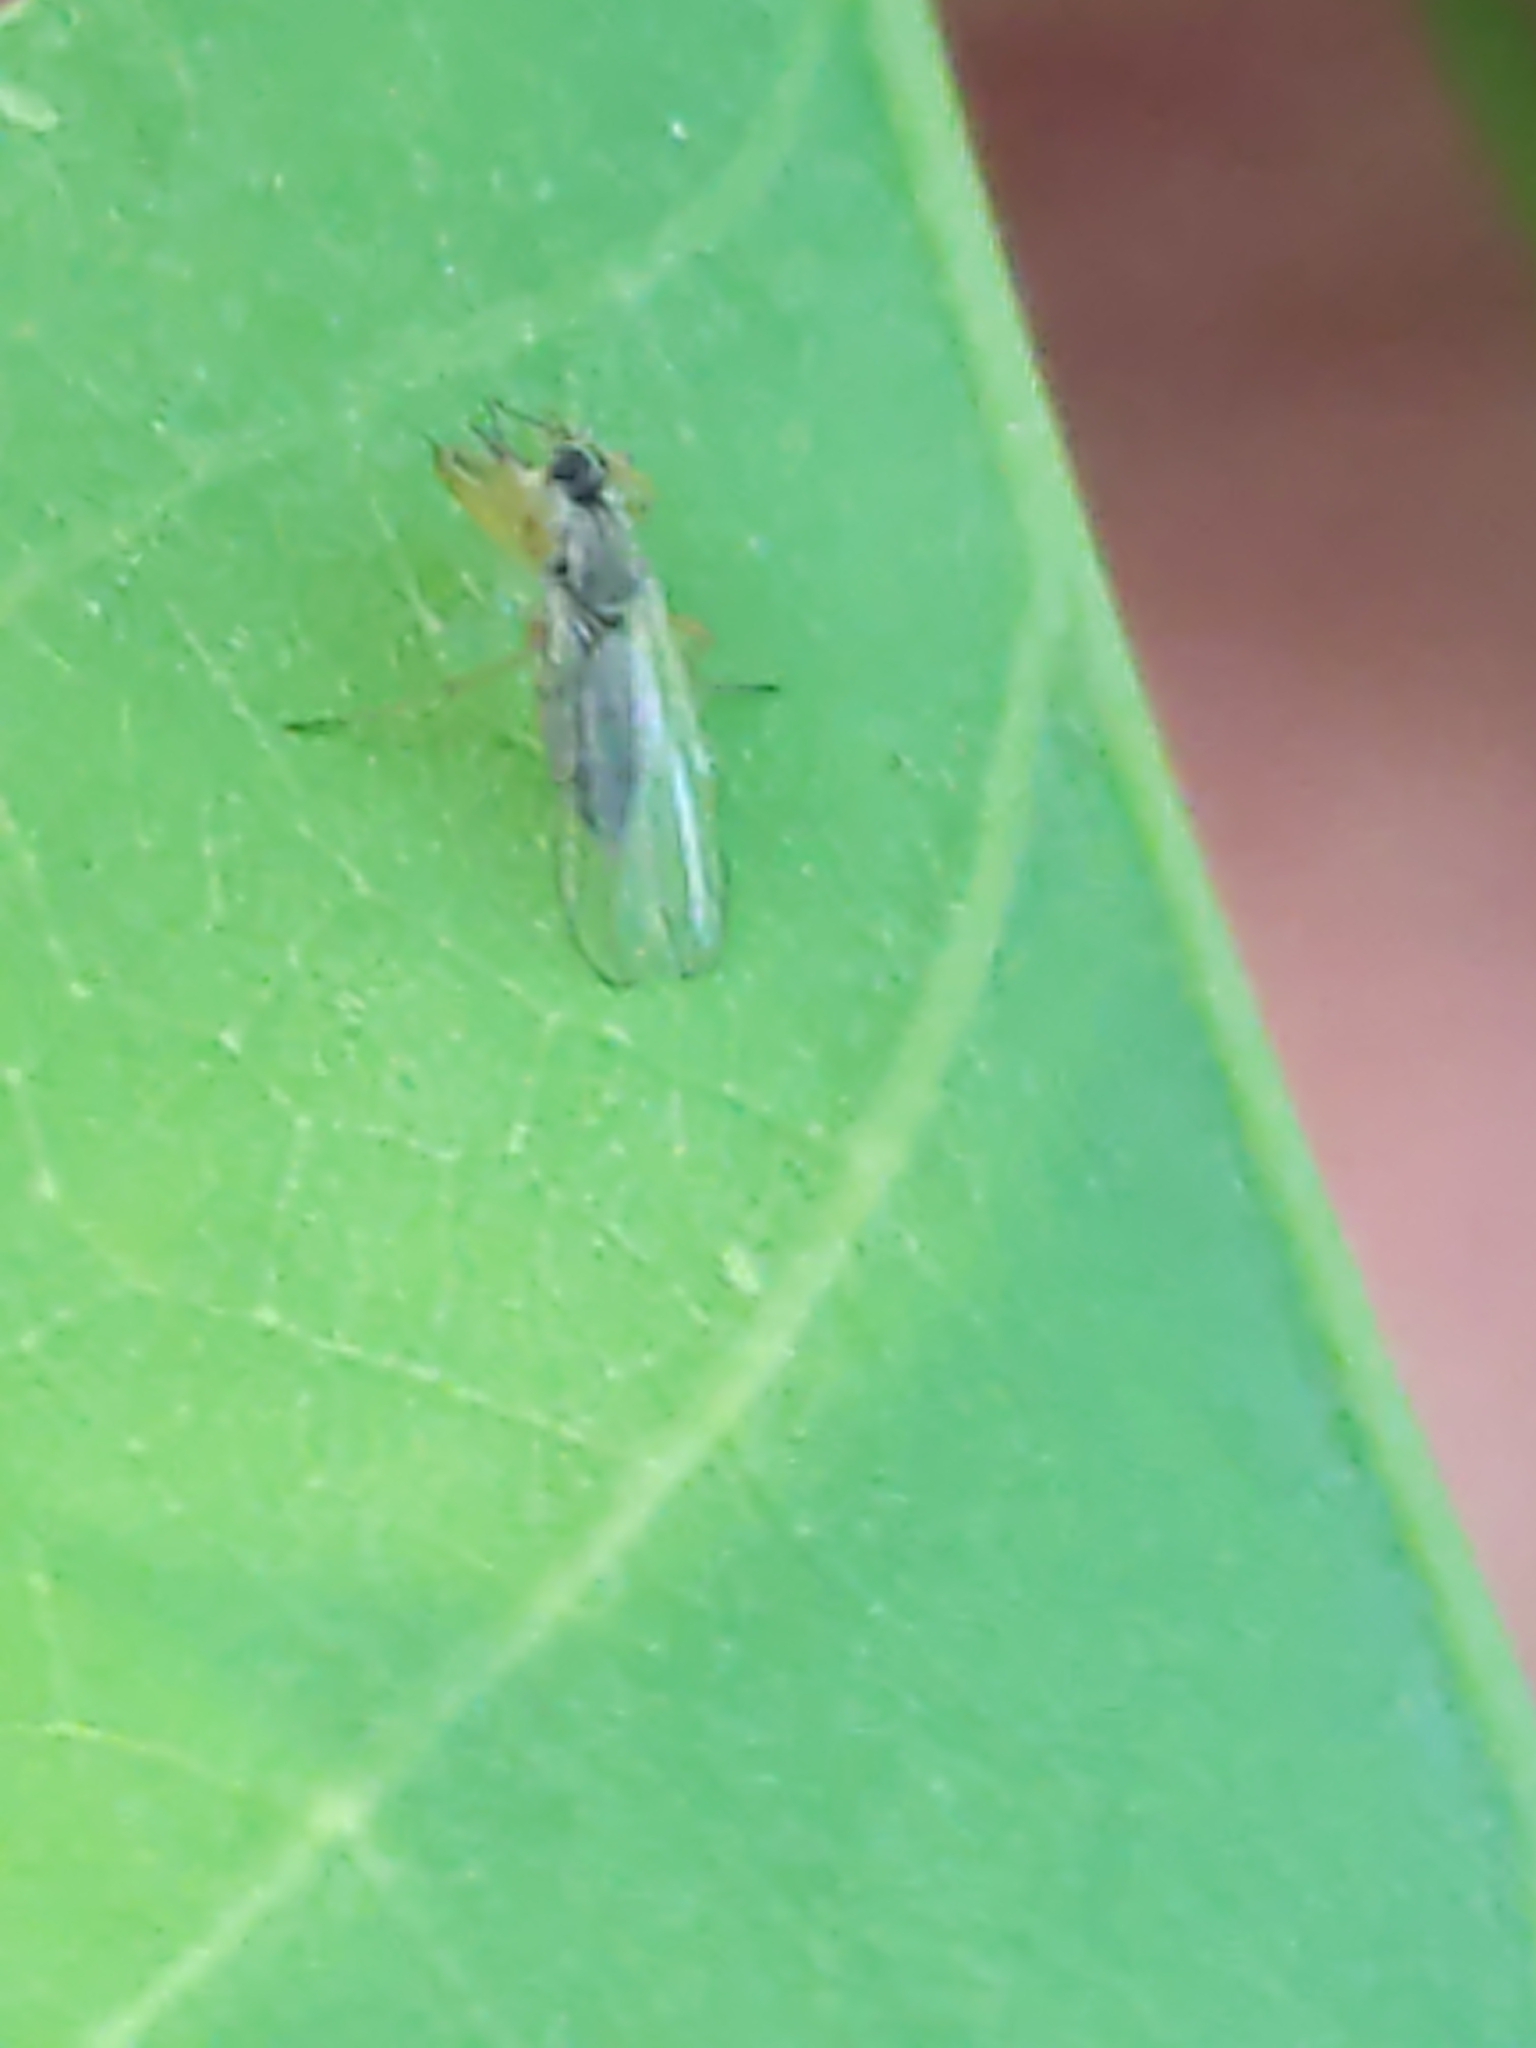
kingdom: Animalia
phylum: Arthropoda
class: Insecta
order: Diptera
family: Hybotidae
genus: Platypalpus
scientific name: Platypalpus
